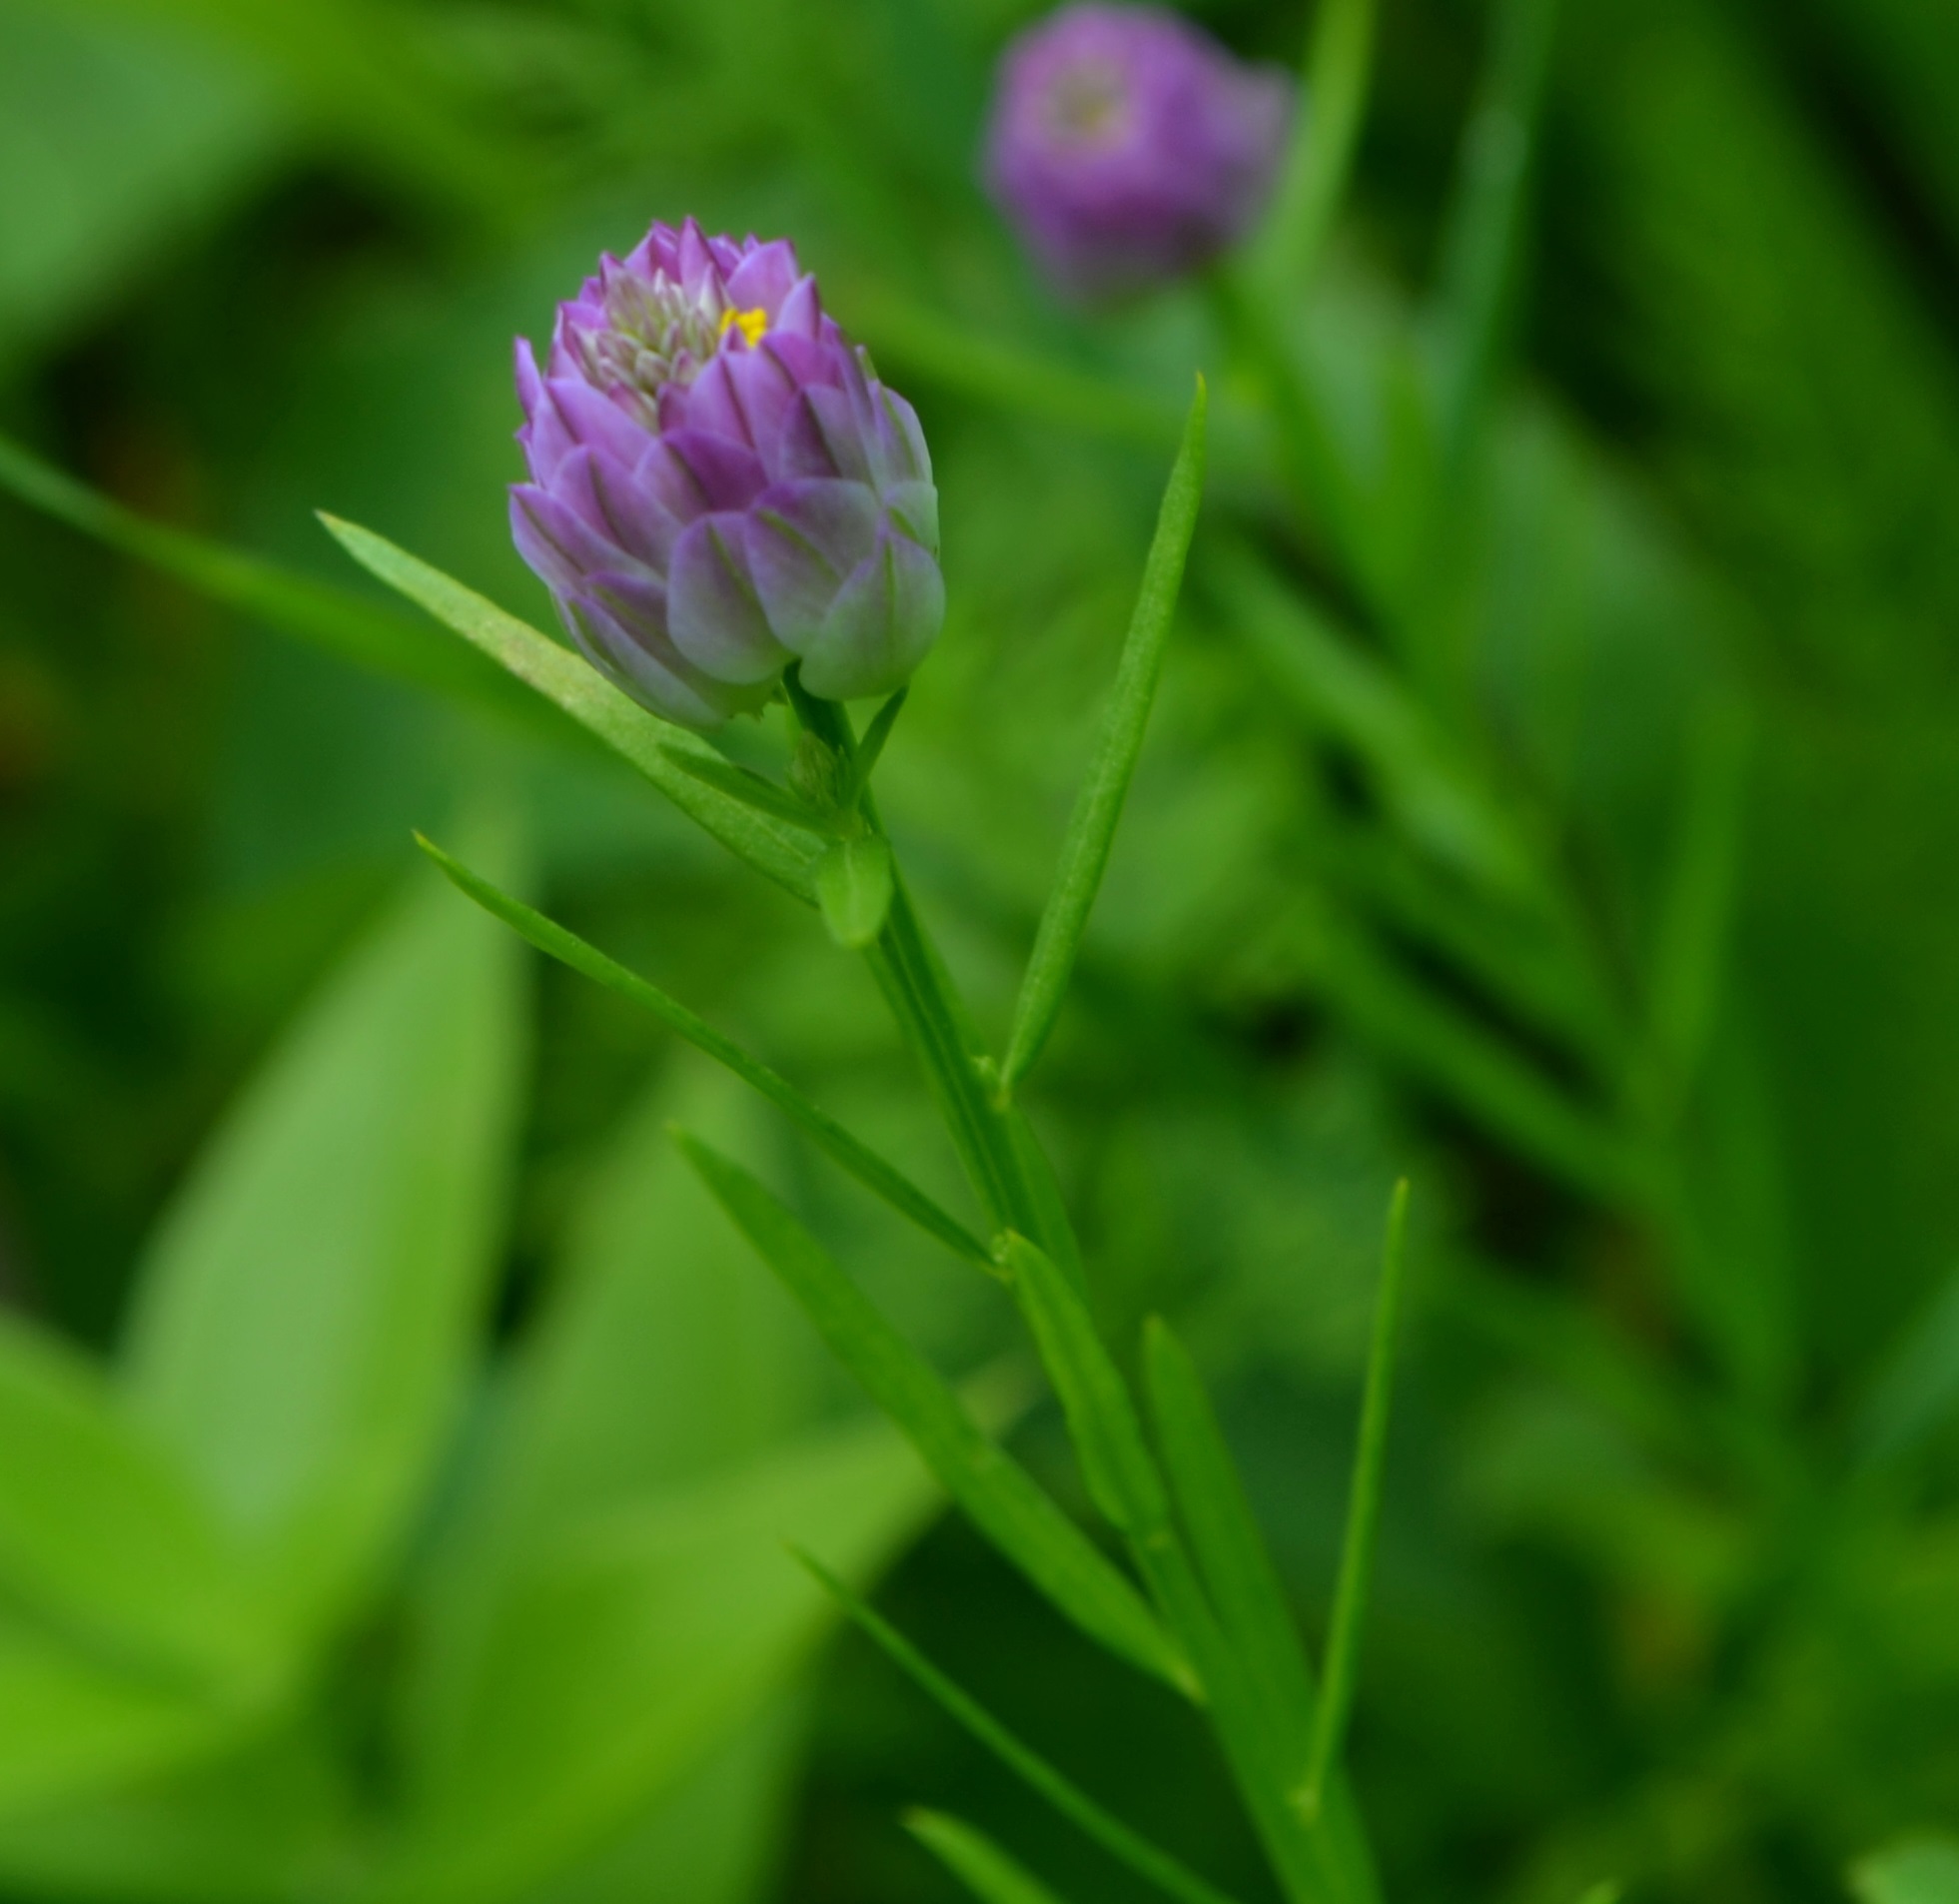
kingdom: Plantae
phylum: Tracheophyta
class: Magnoliopsida
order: Fabales
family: Polygalaceae
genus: Polygala
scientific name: Polygala sanguinea
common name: Blood milkwort
